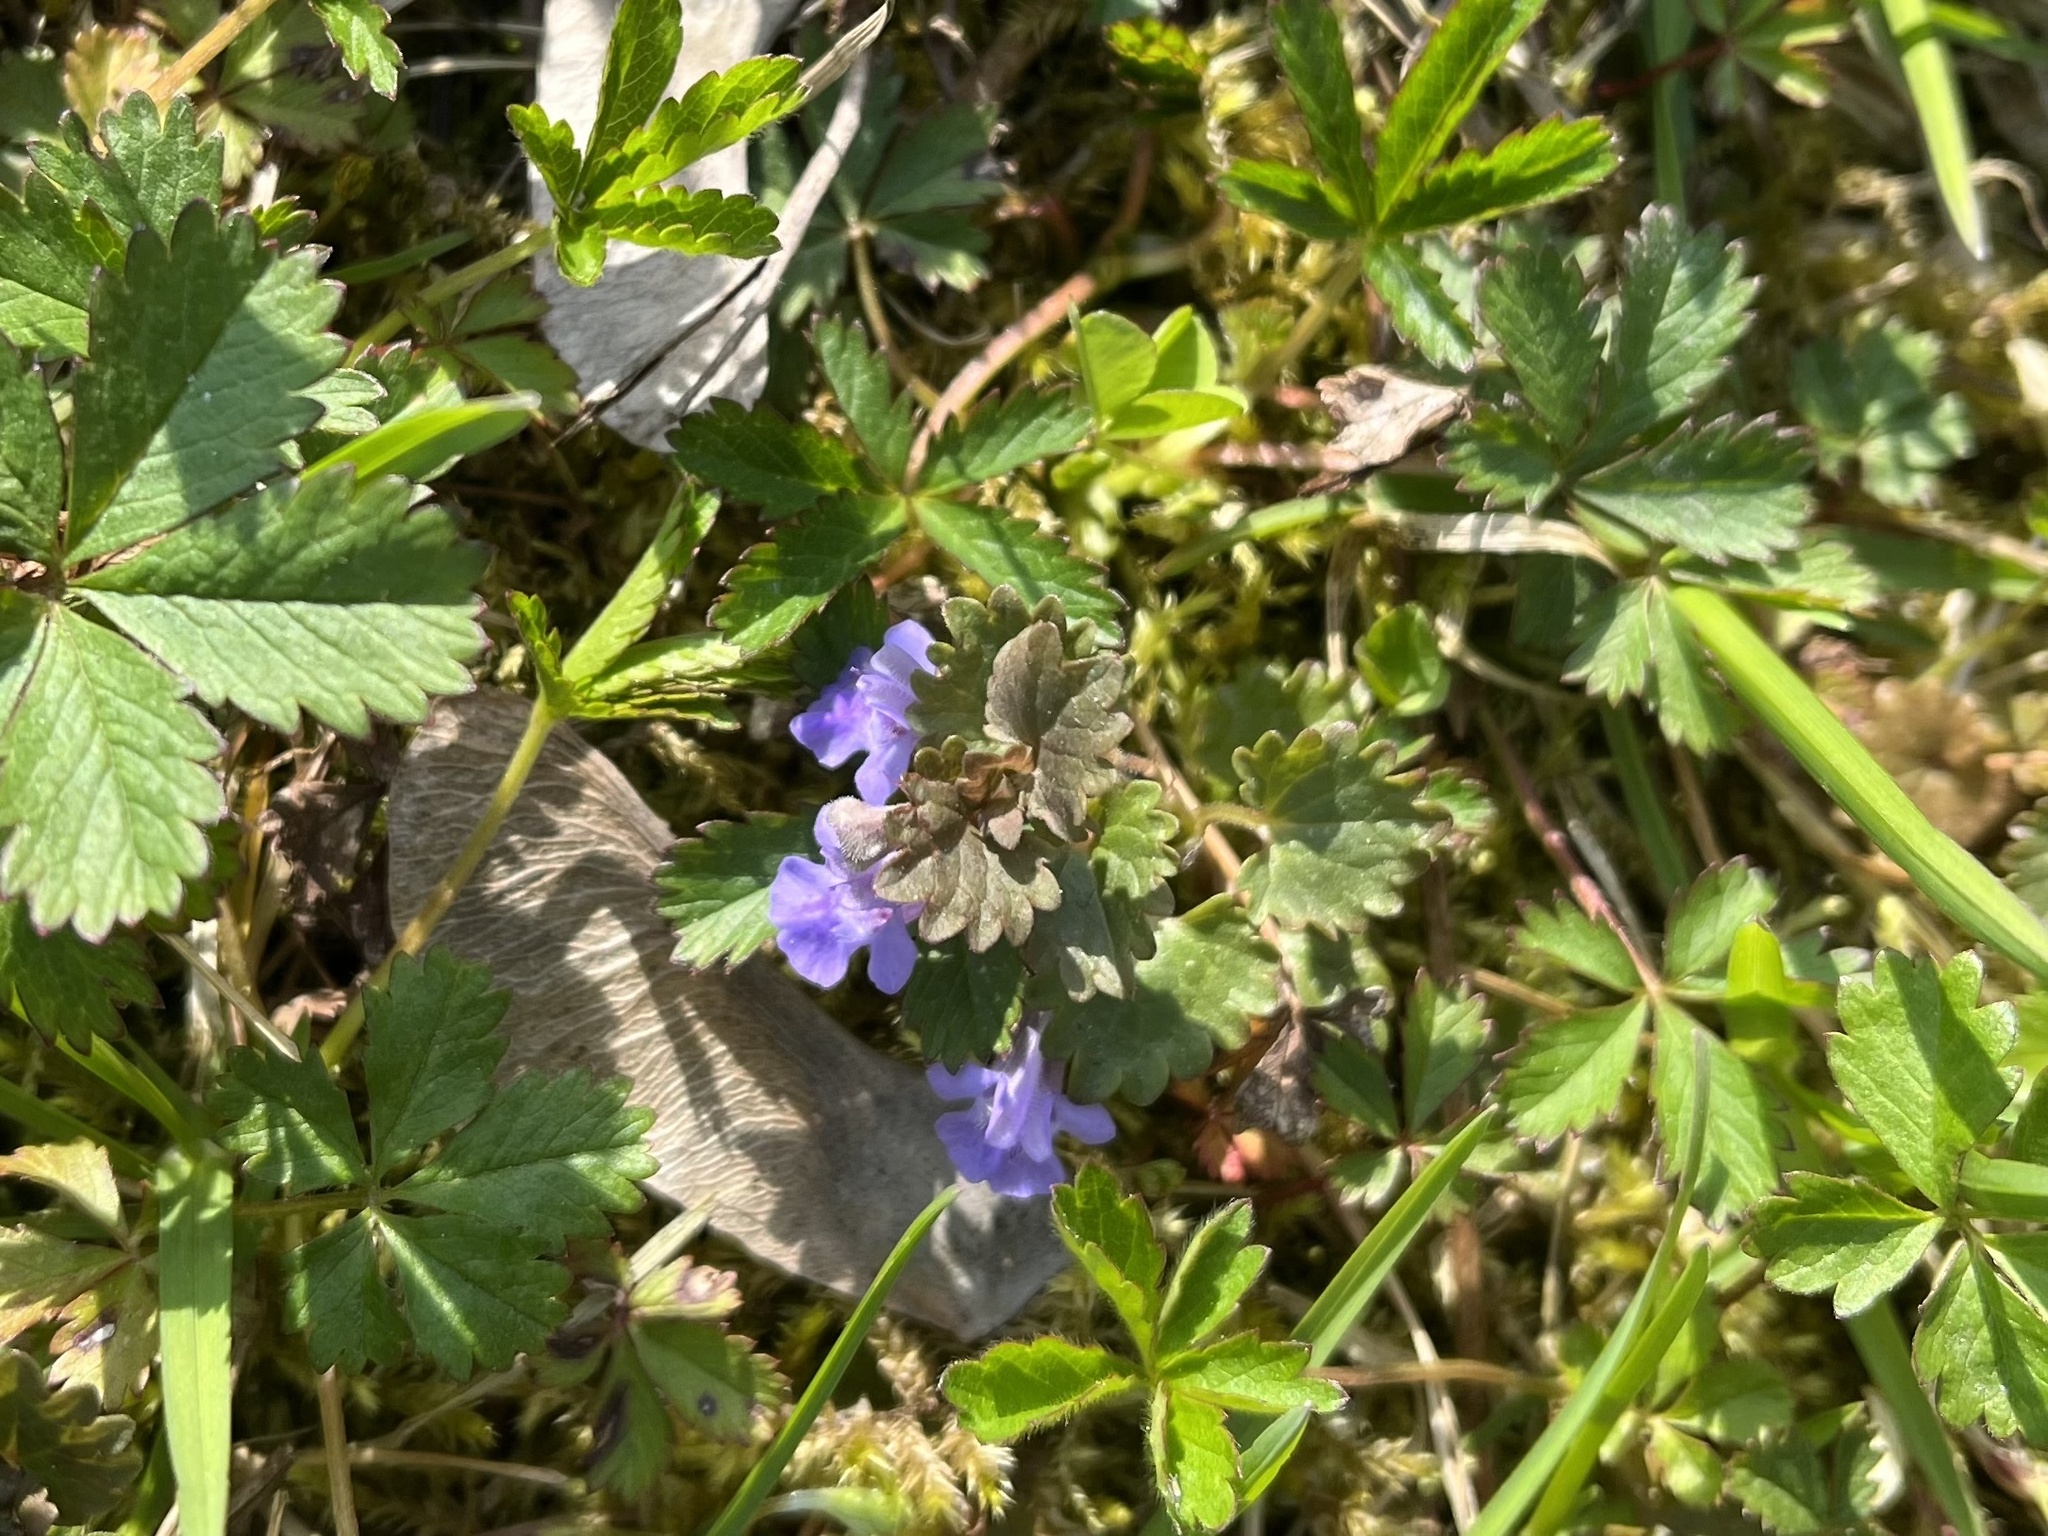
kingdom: Plantae
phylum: Tracheophyta
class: Magnoliopsida
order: Lamiales
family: Lamiaceae
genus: Glechoma
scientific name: Glechoma hederacea
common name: Ground ivy
